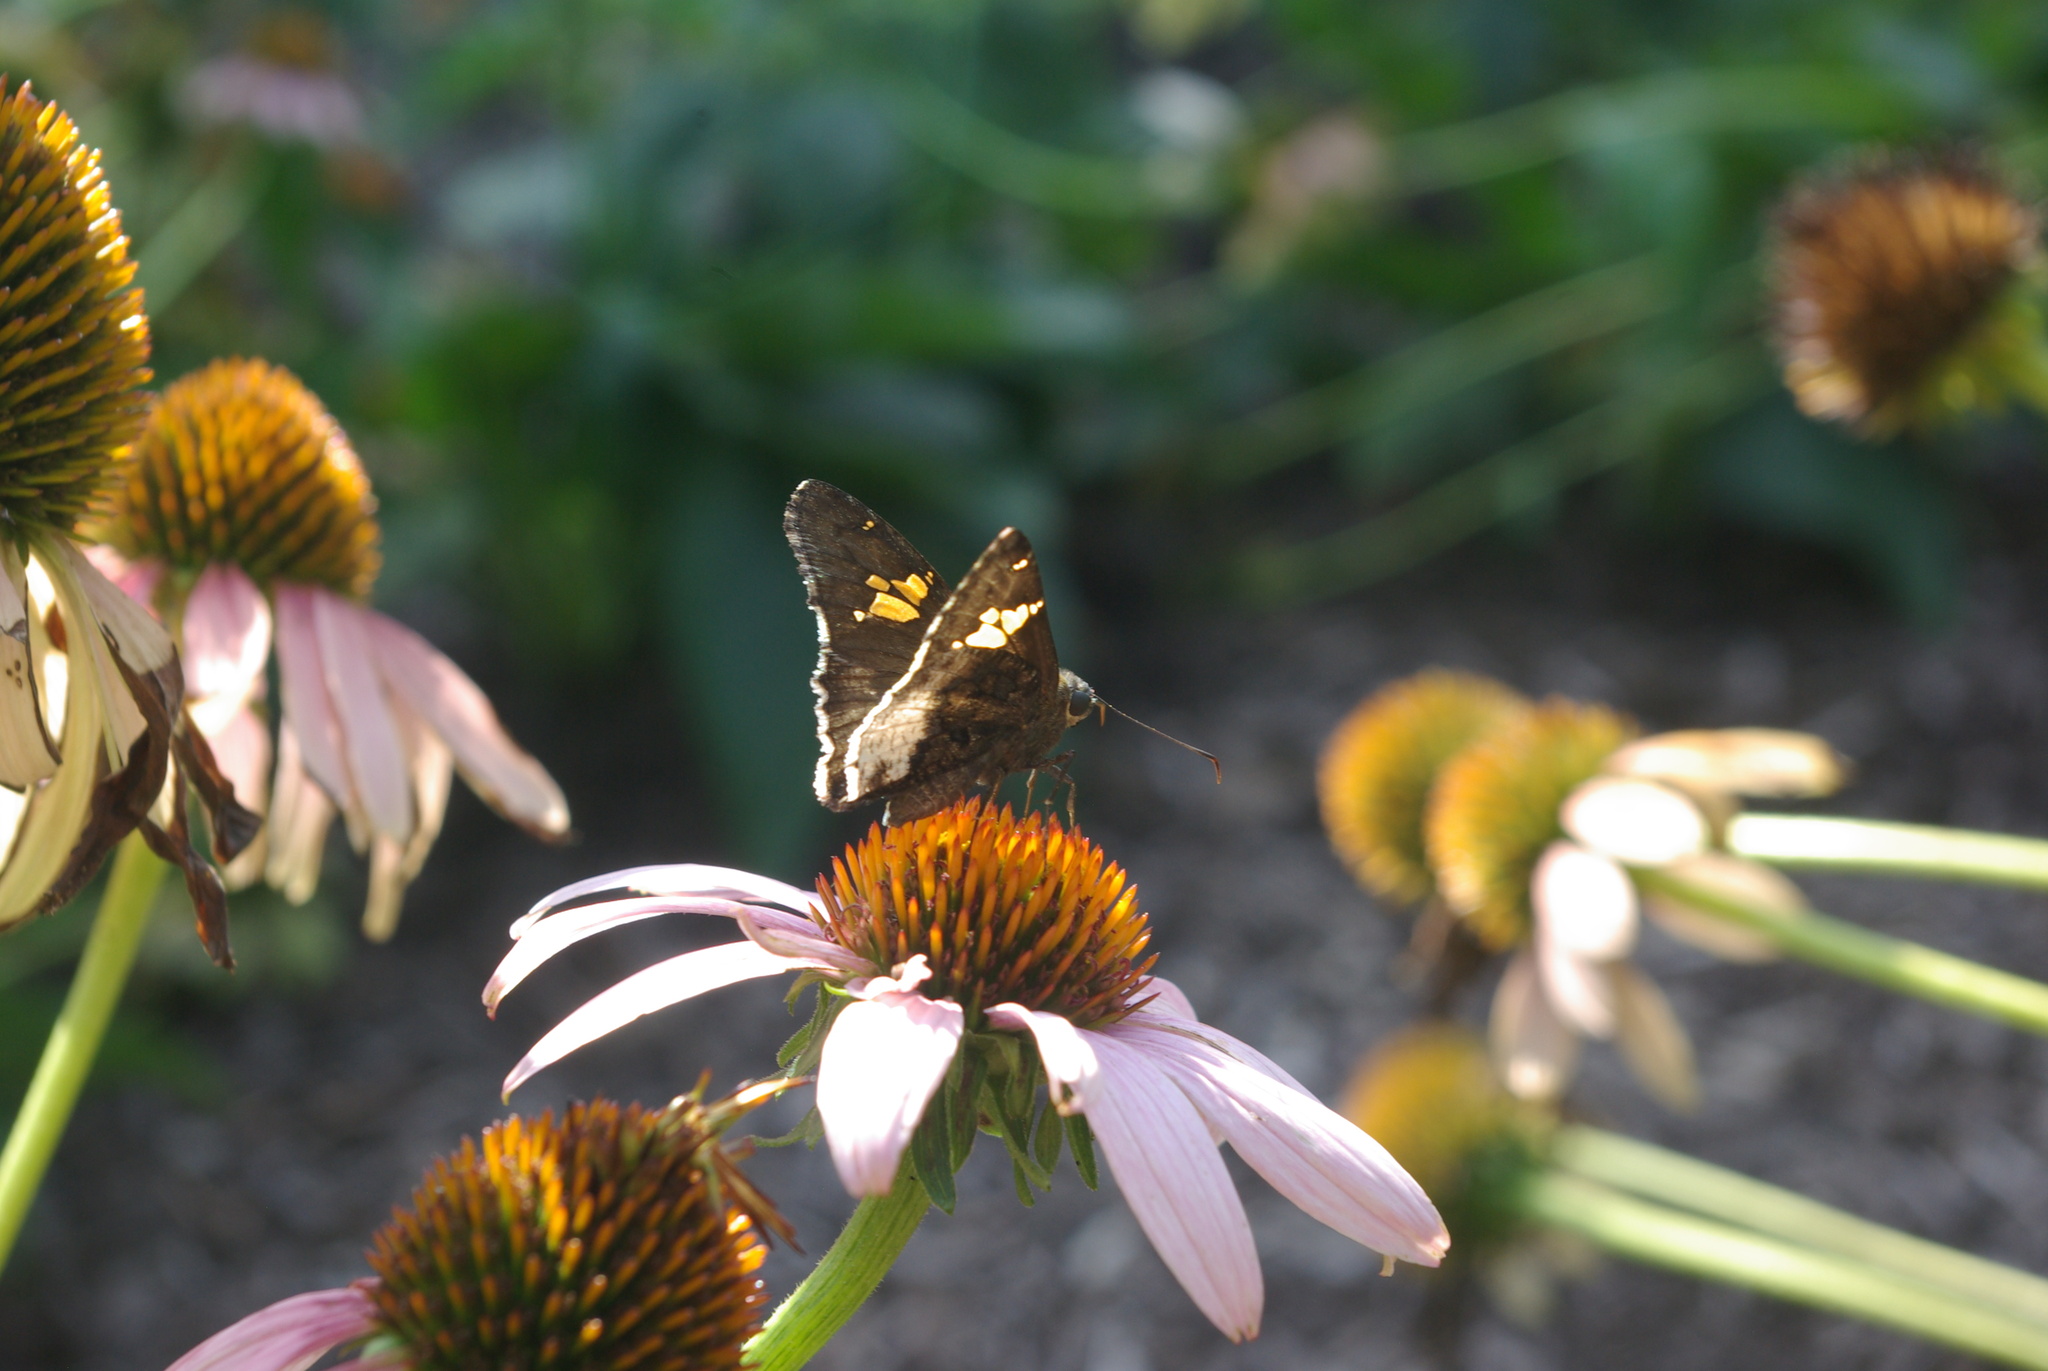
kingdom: Animalia
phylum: Arthropoda
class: Insecta
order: Lepidoptera
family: Hesperiidae
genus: Thorybes
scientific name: Thorybes lyciades
